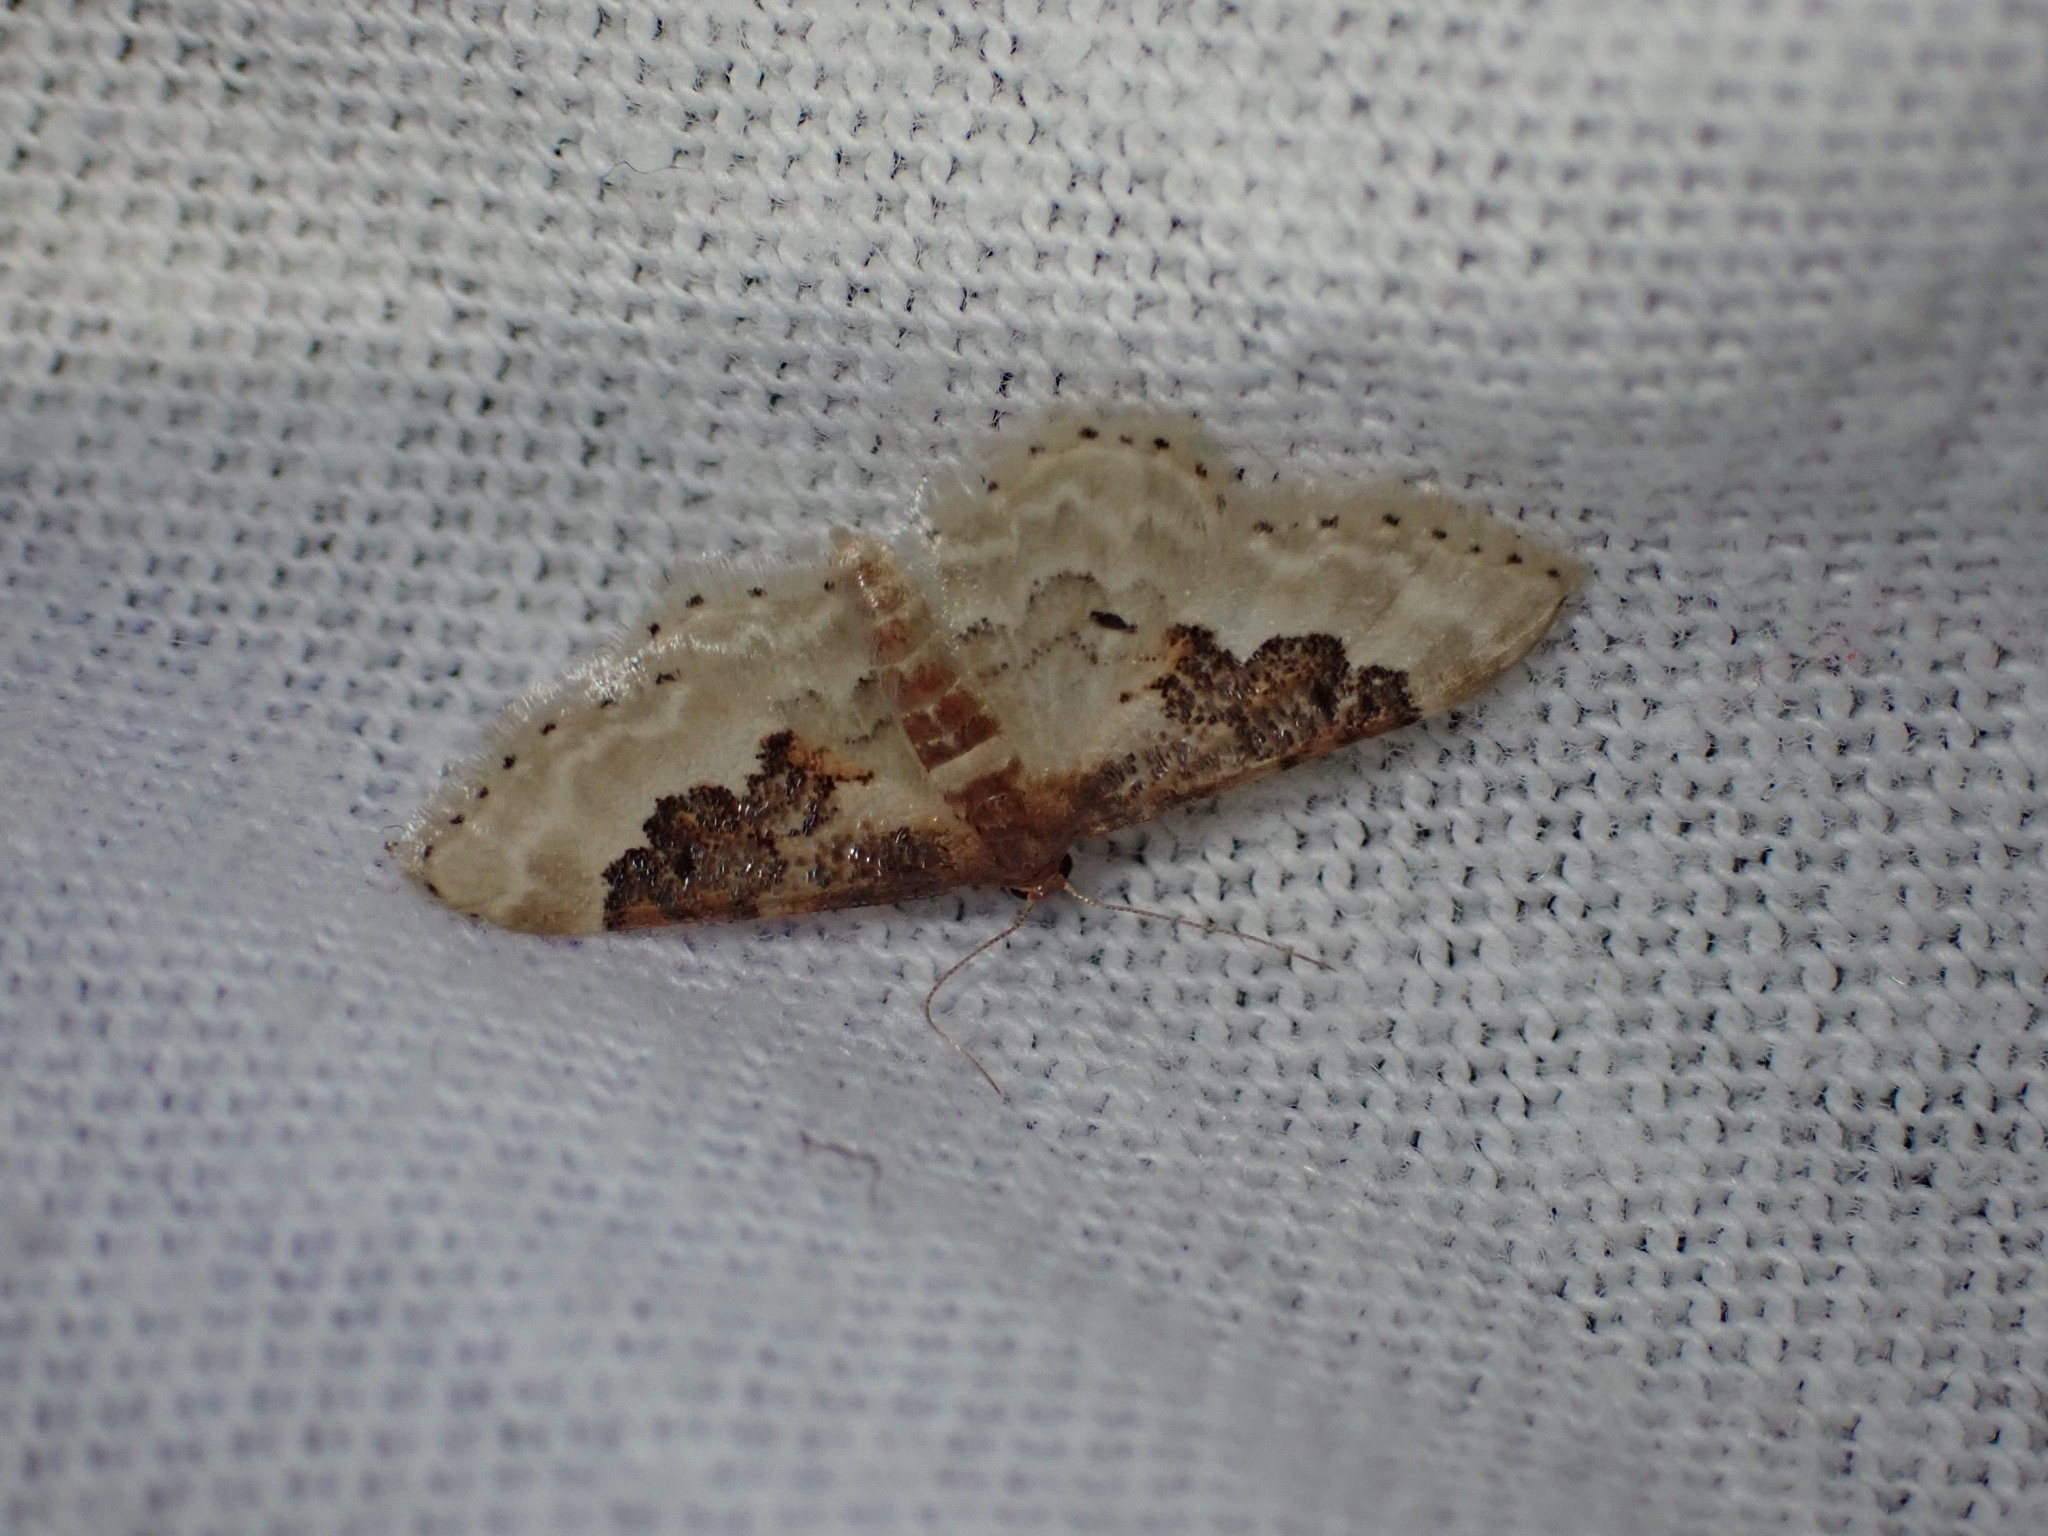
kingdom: Animalia
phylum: Arthropoda
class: Insecta
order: Lepidoptera
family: Geometridae
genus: Idaea
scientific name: Idaea rusticata
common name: Least carpet
